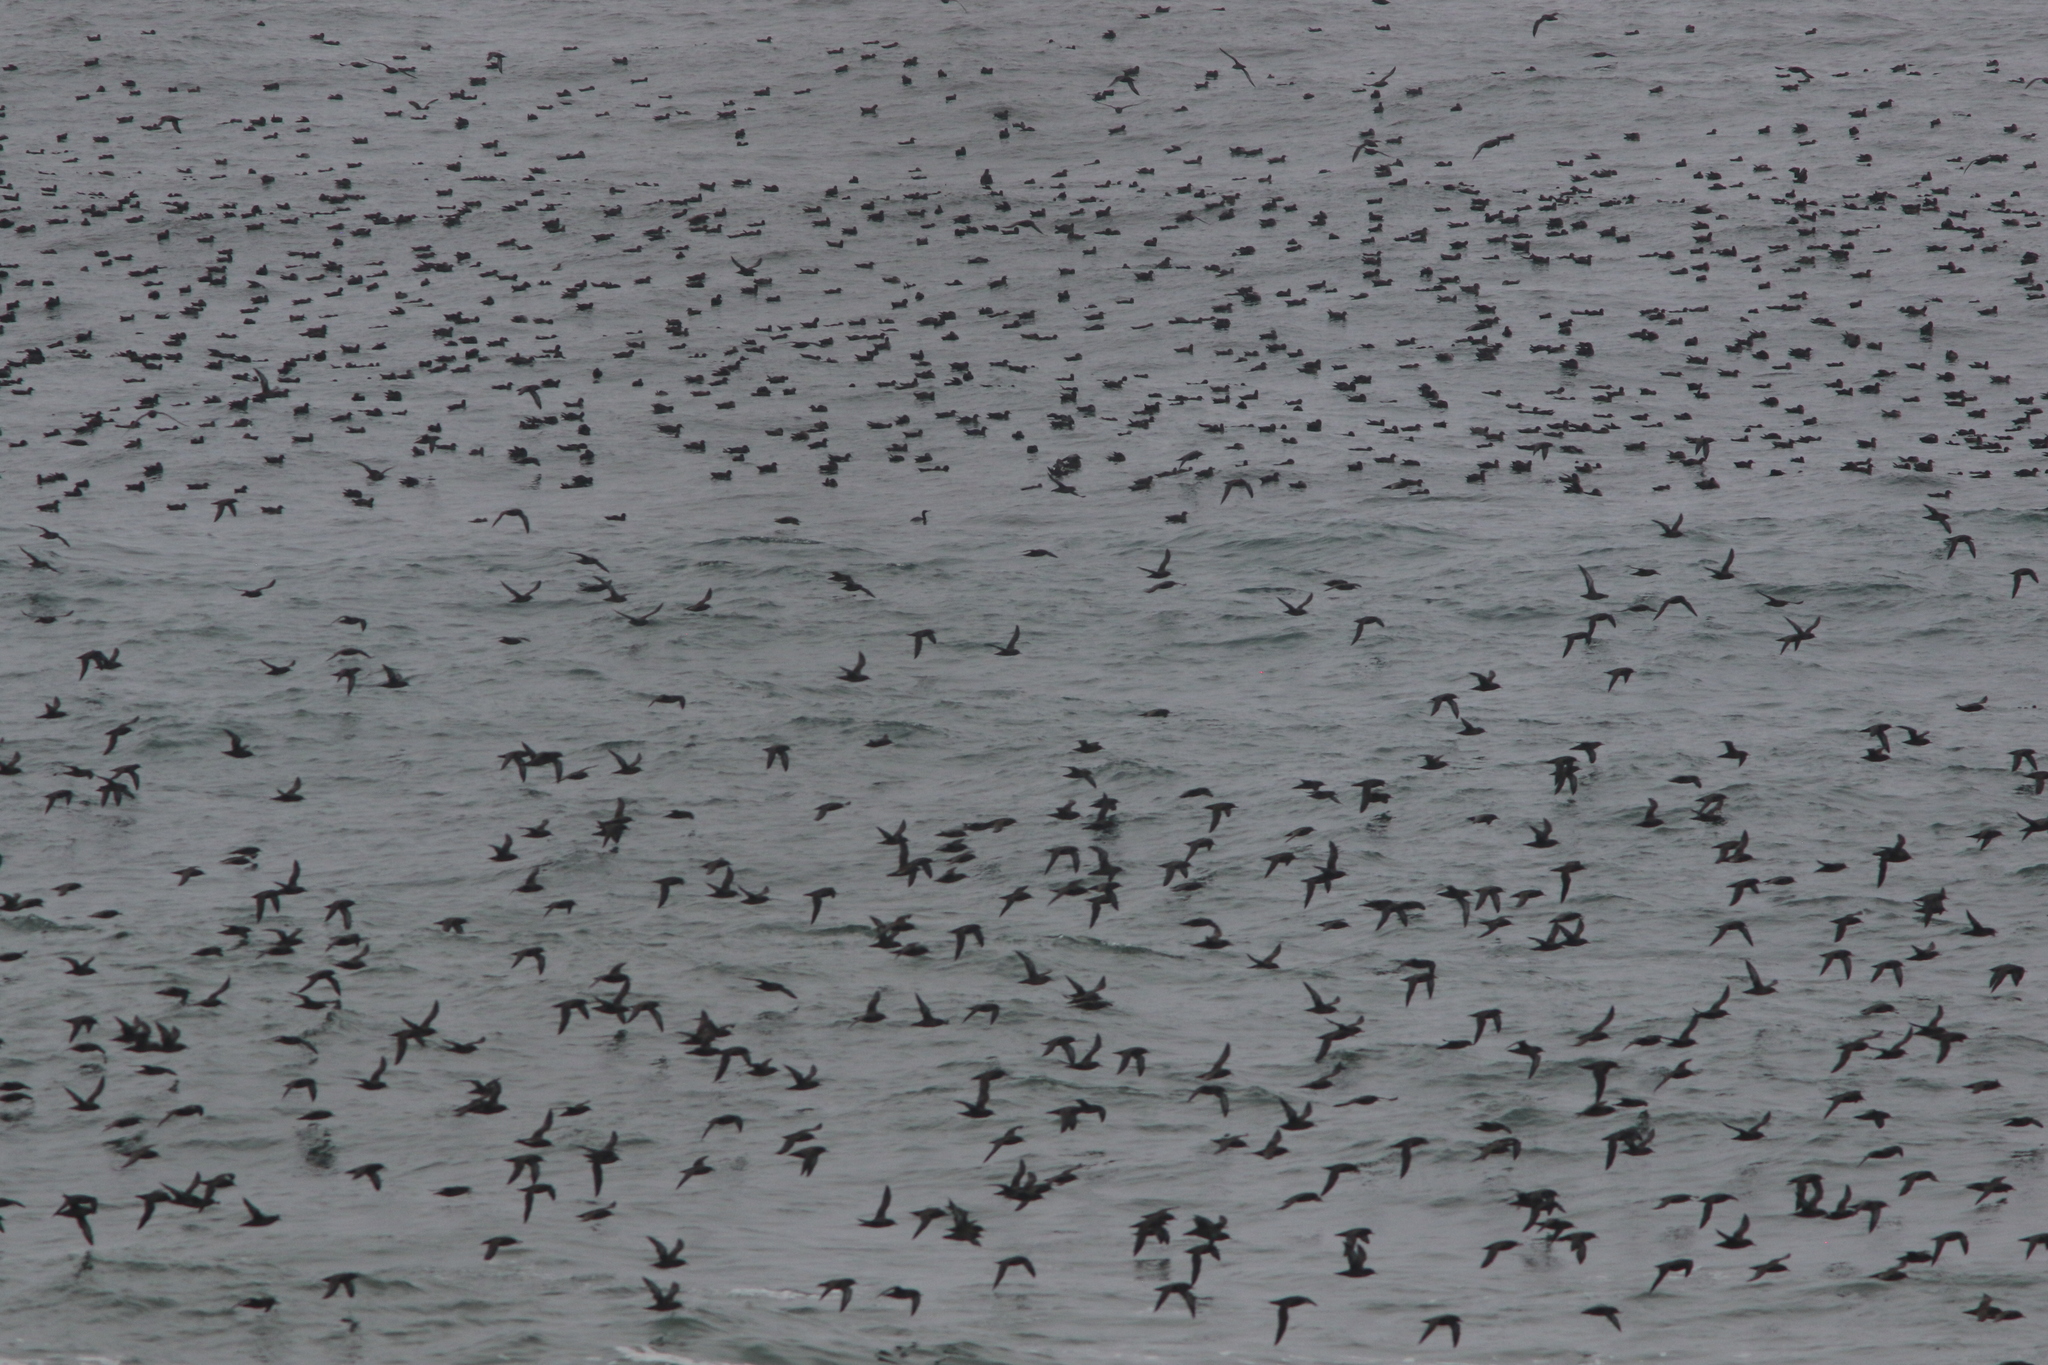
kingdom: Animalia
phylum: Chordata
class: Aves
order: Procellariiformes
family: Procellariidae
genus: Puffinus
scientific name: Puffinus griseus
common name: Sooty shearwater
